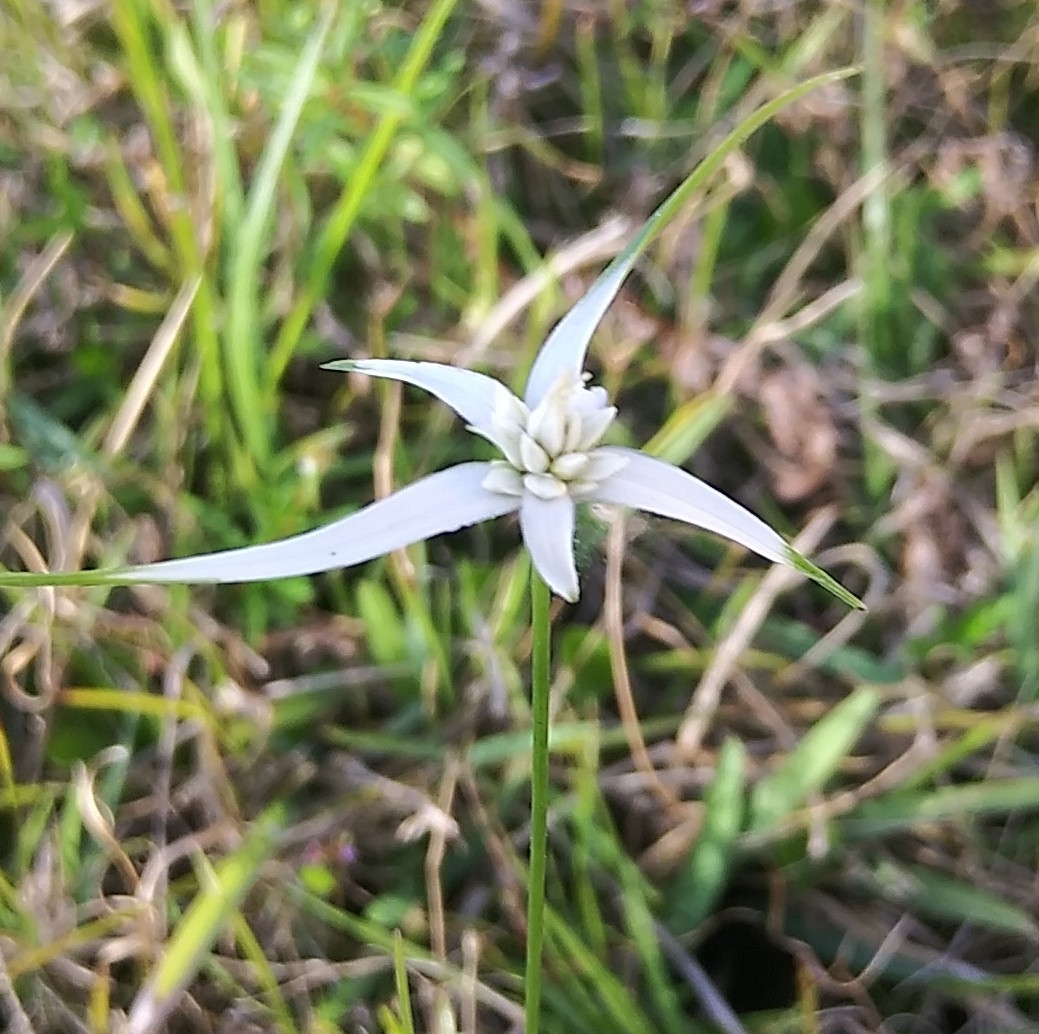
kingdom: Plantae
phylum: Tracheophyta
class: Liliopsida
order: Poales
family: Cyperaceae
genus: Rhynchospora
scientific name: Rhynchospora colorata
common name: Star sedge
